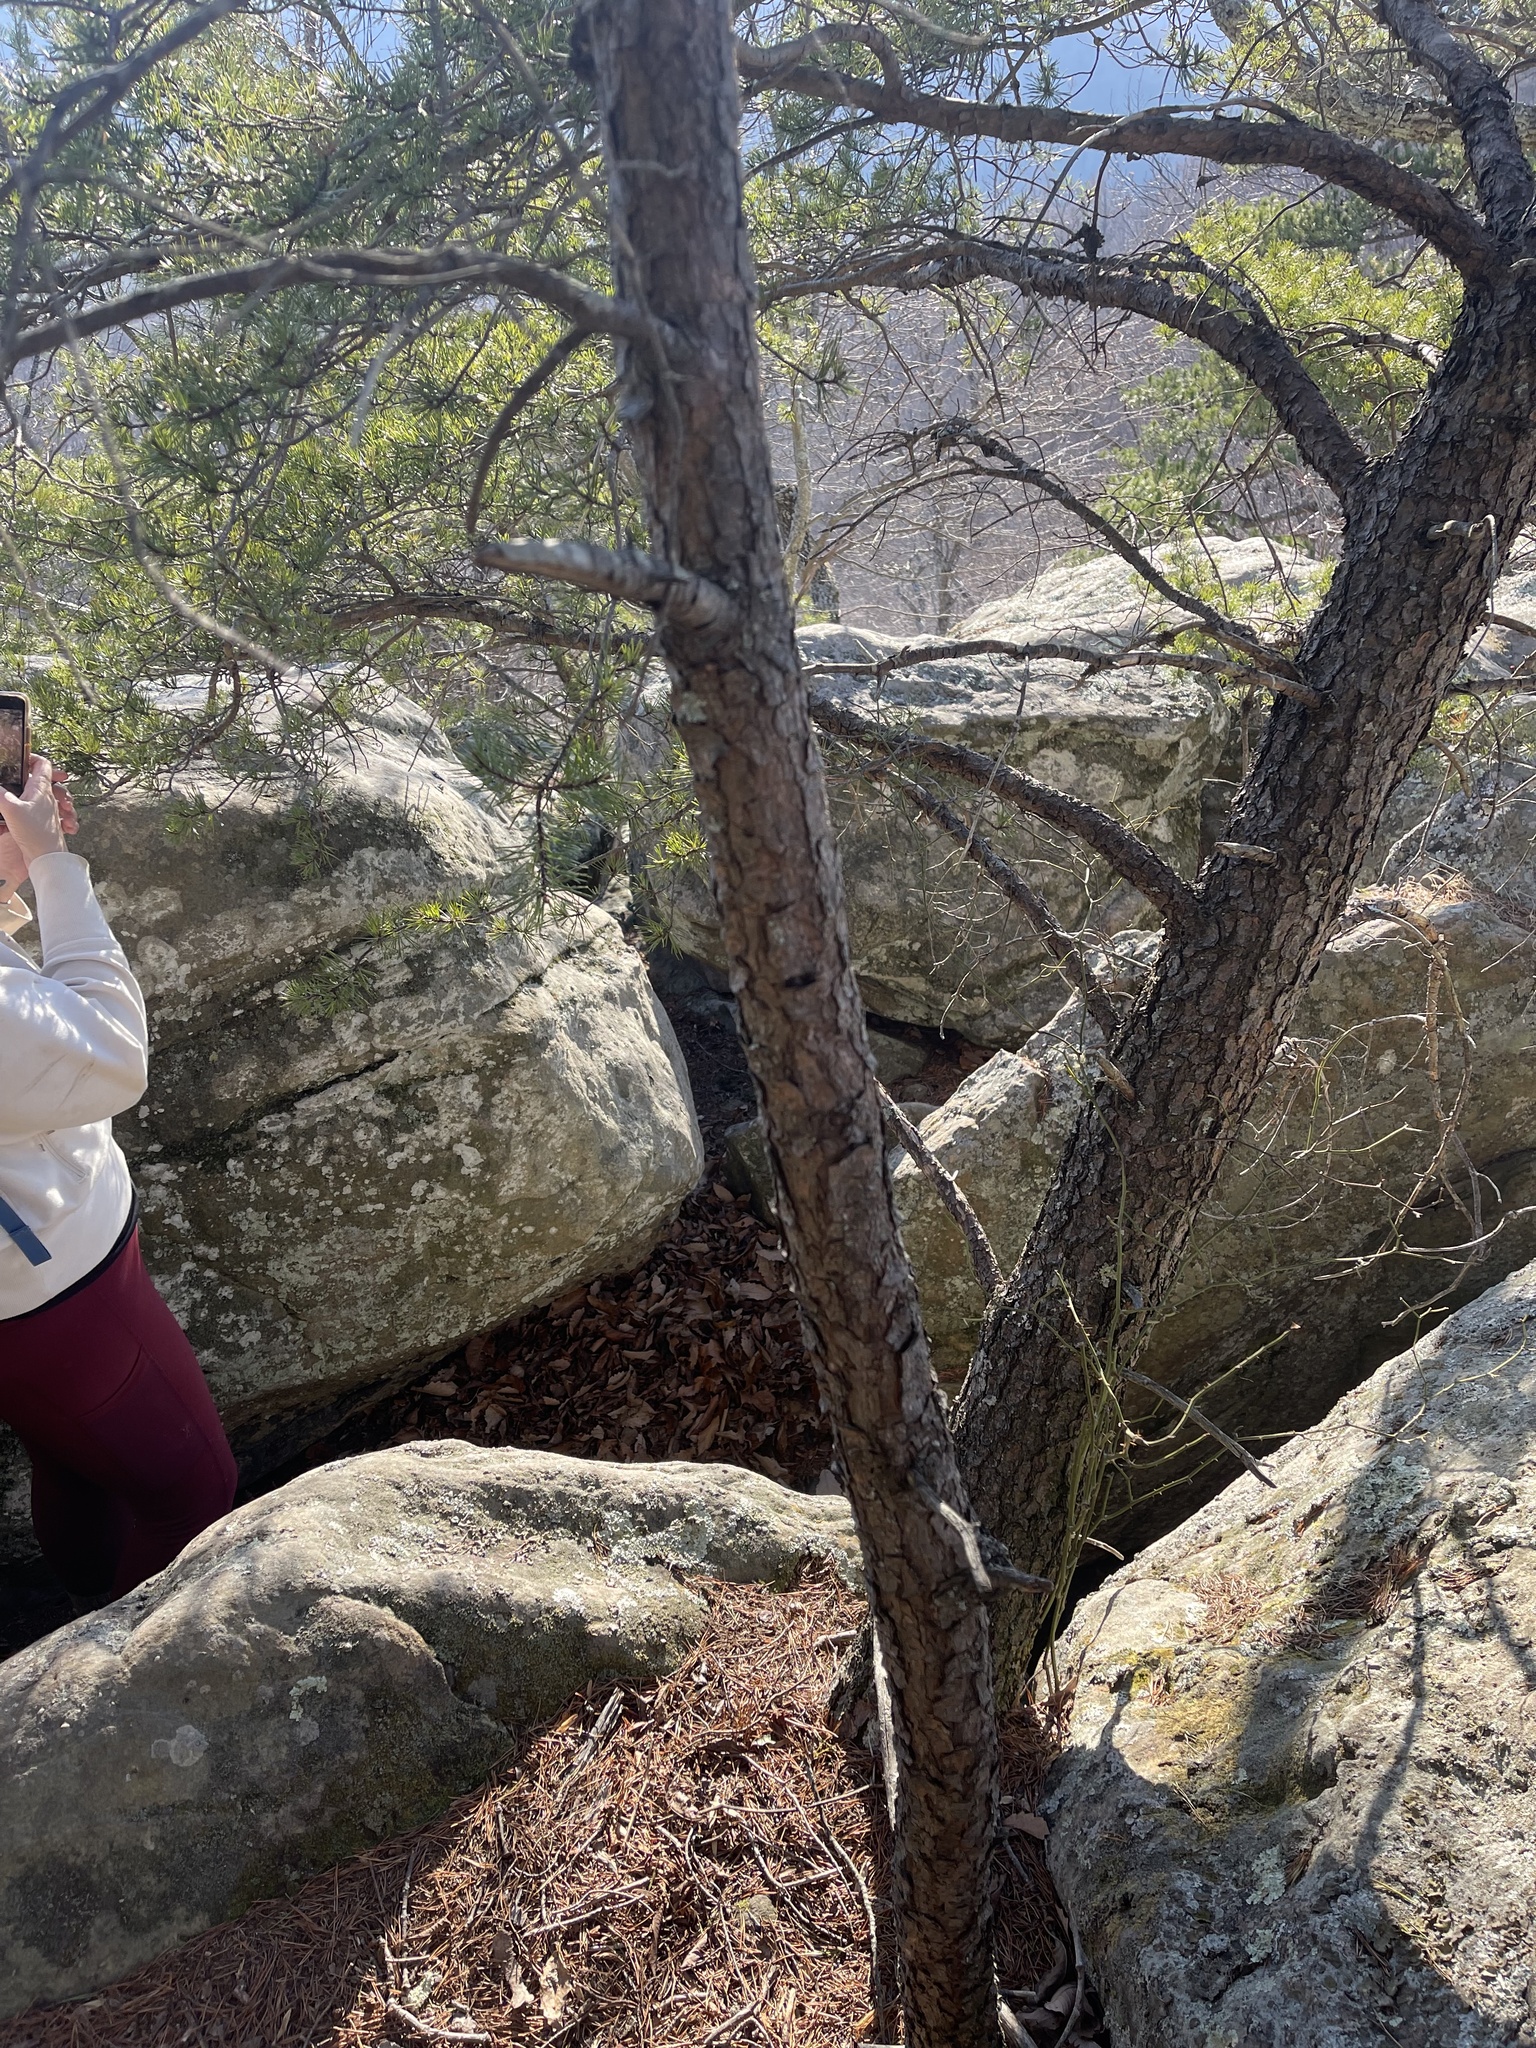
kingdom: Plantae
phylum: Tracheophyta
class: Pinopsida
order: Pinales
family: Pinaceae
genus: Pinus
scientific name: Pinus virginiana
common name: Scrub pine
